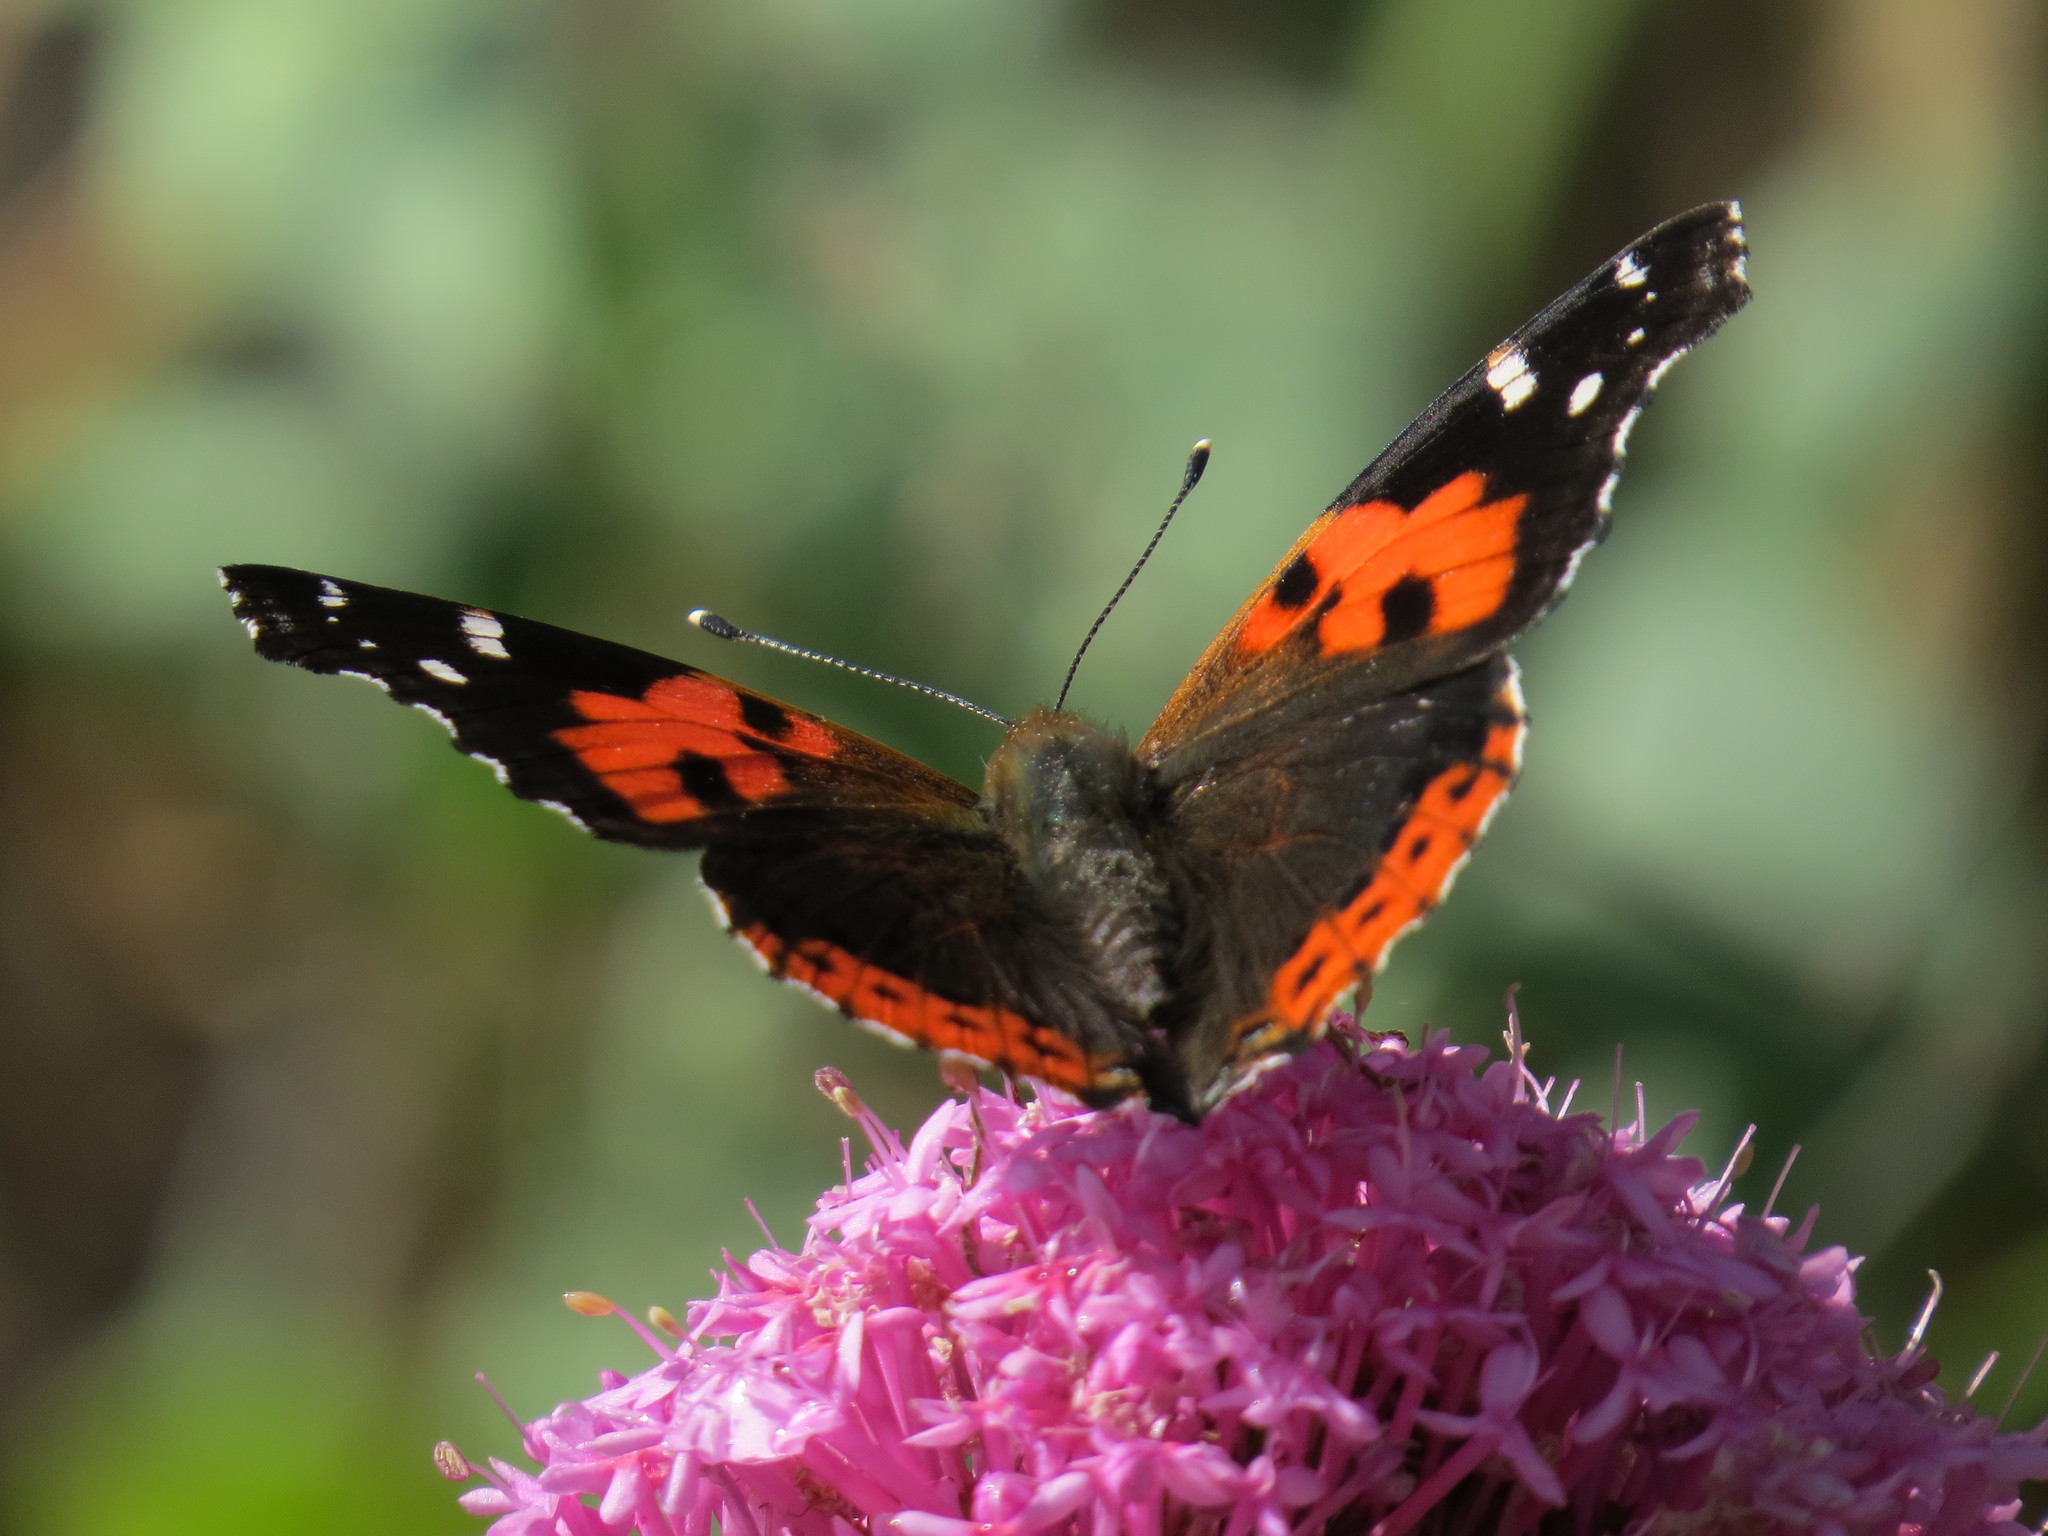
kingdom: Animalia
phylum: Arthropoda
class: Insecta
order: Lepidoptera
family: Nymphalidae
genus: Vanessa
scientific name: Vanessa vulcania
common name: Canary red admiral
